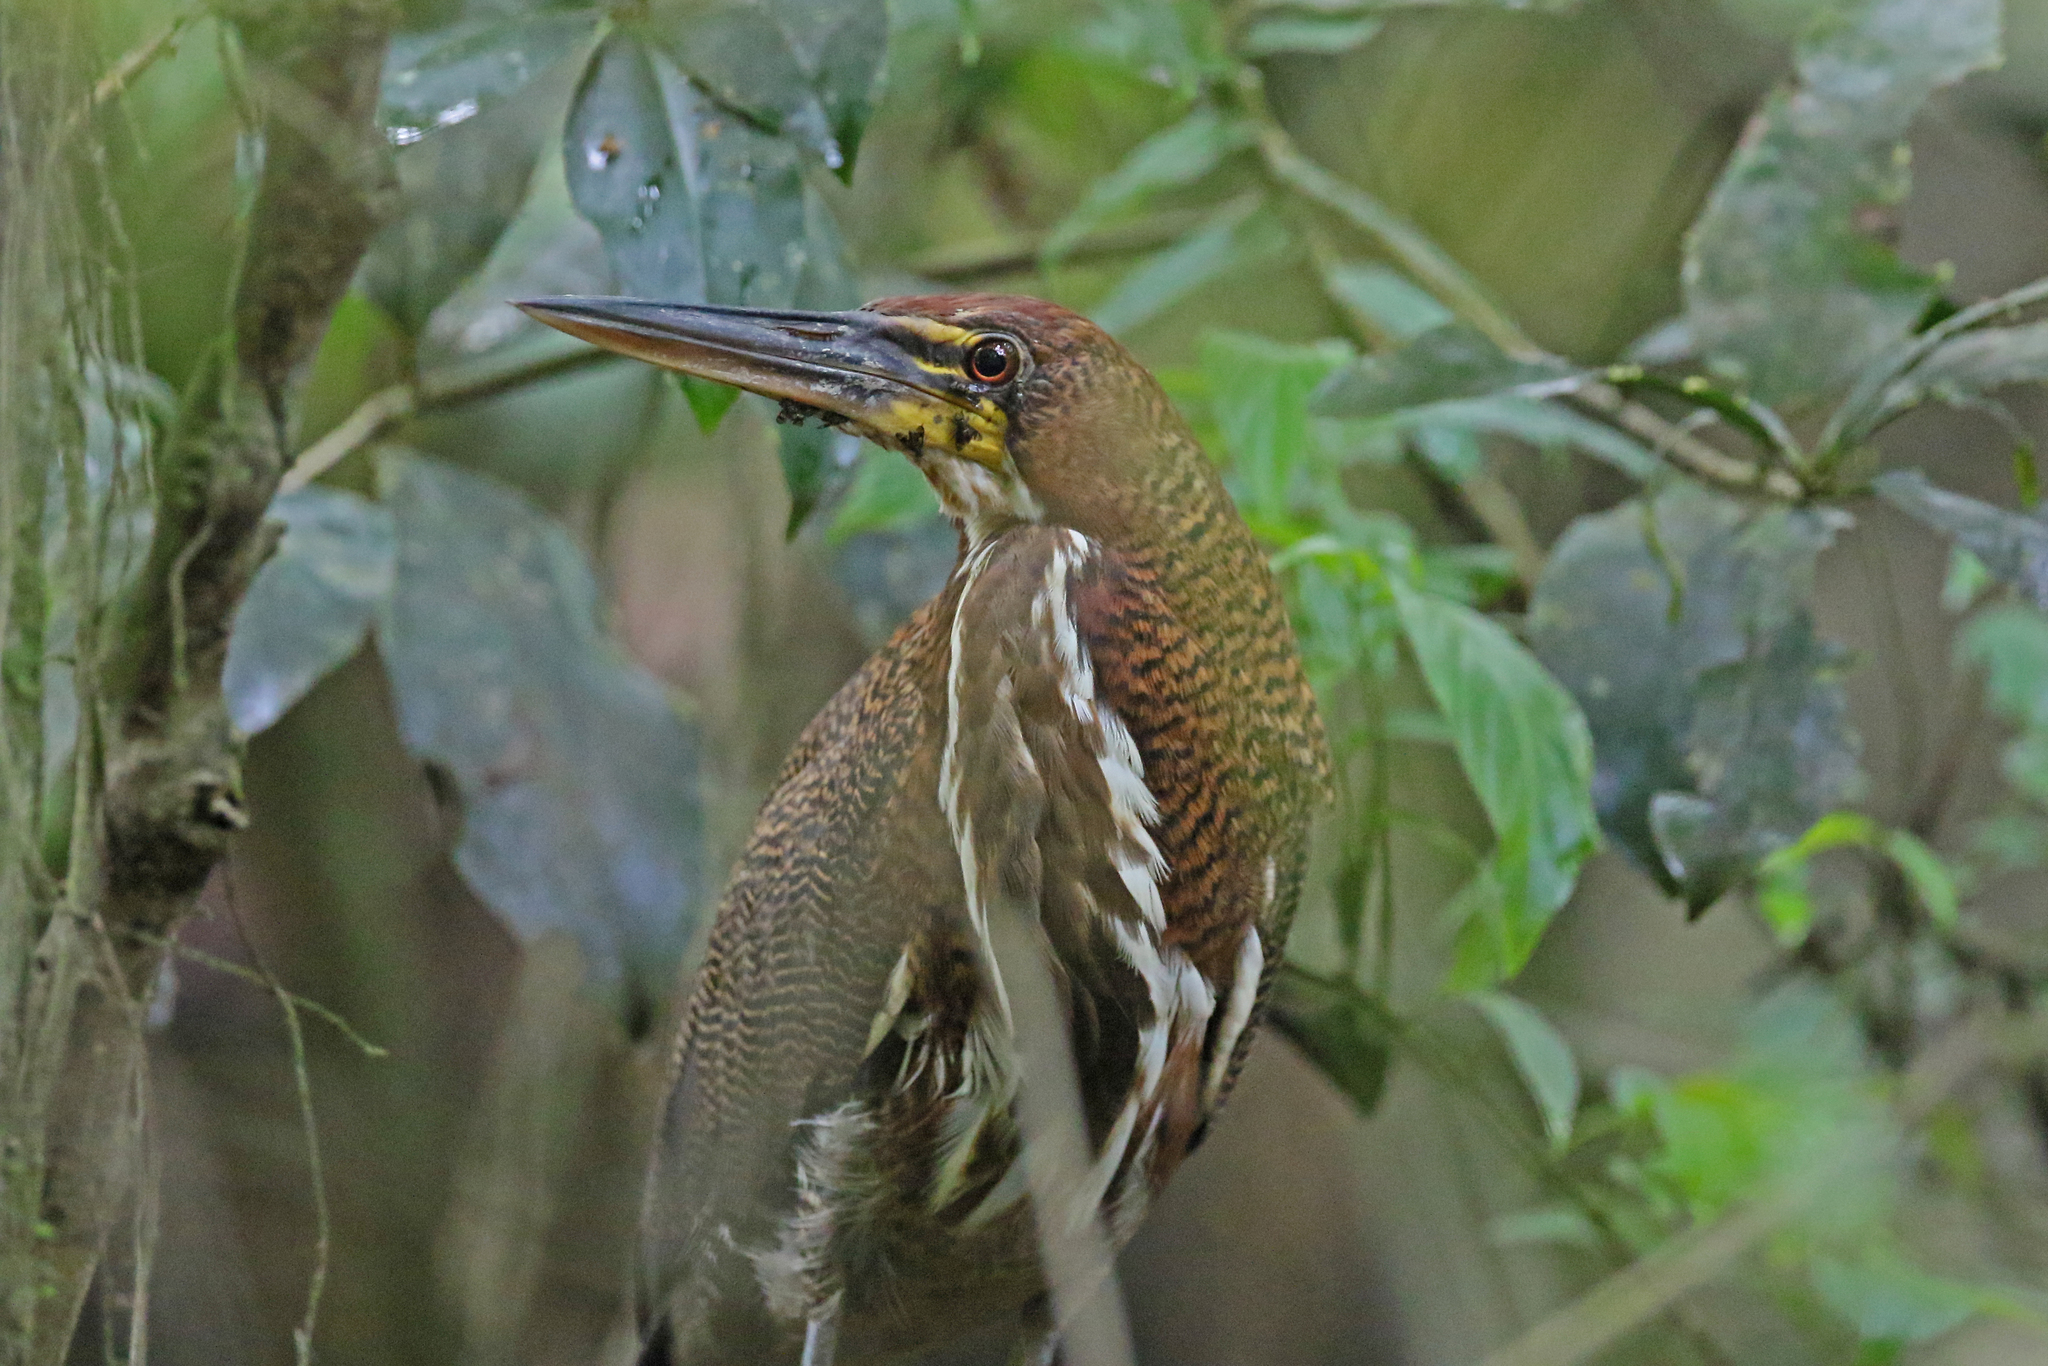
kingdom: Animalia
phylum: Chordata
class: Aves
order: Pelecaniformes
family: Ardeidae
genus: Tigrisoma
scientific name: Tigrisoma lineatum
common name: Rufescent tiger-heron
